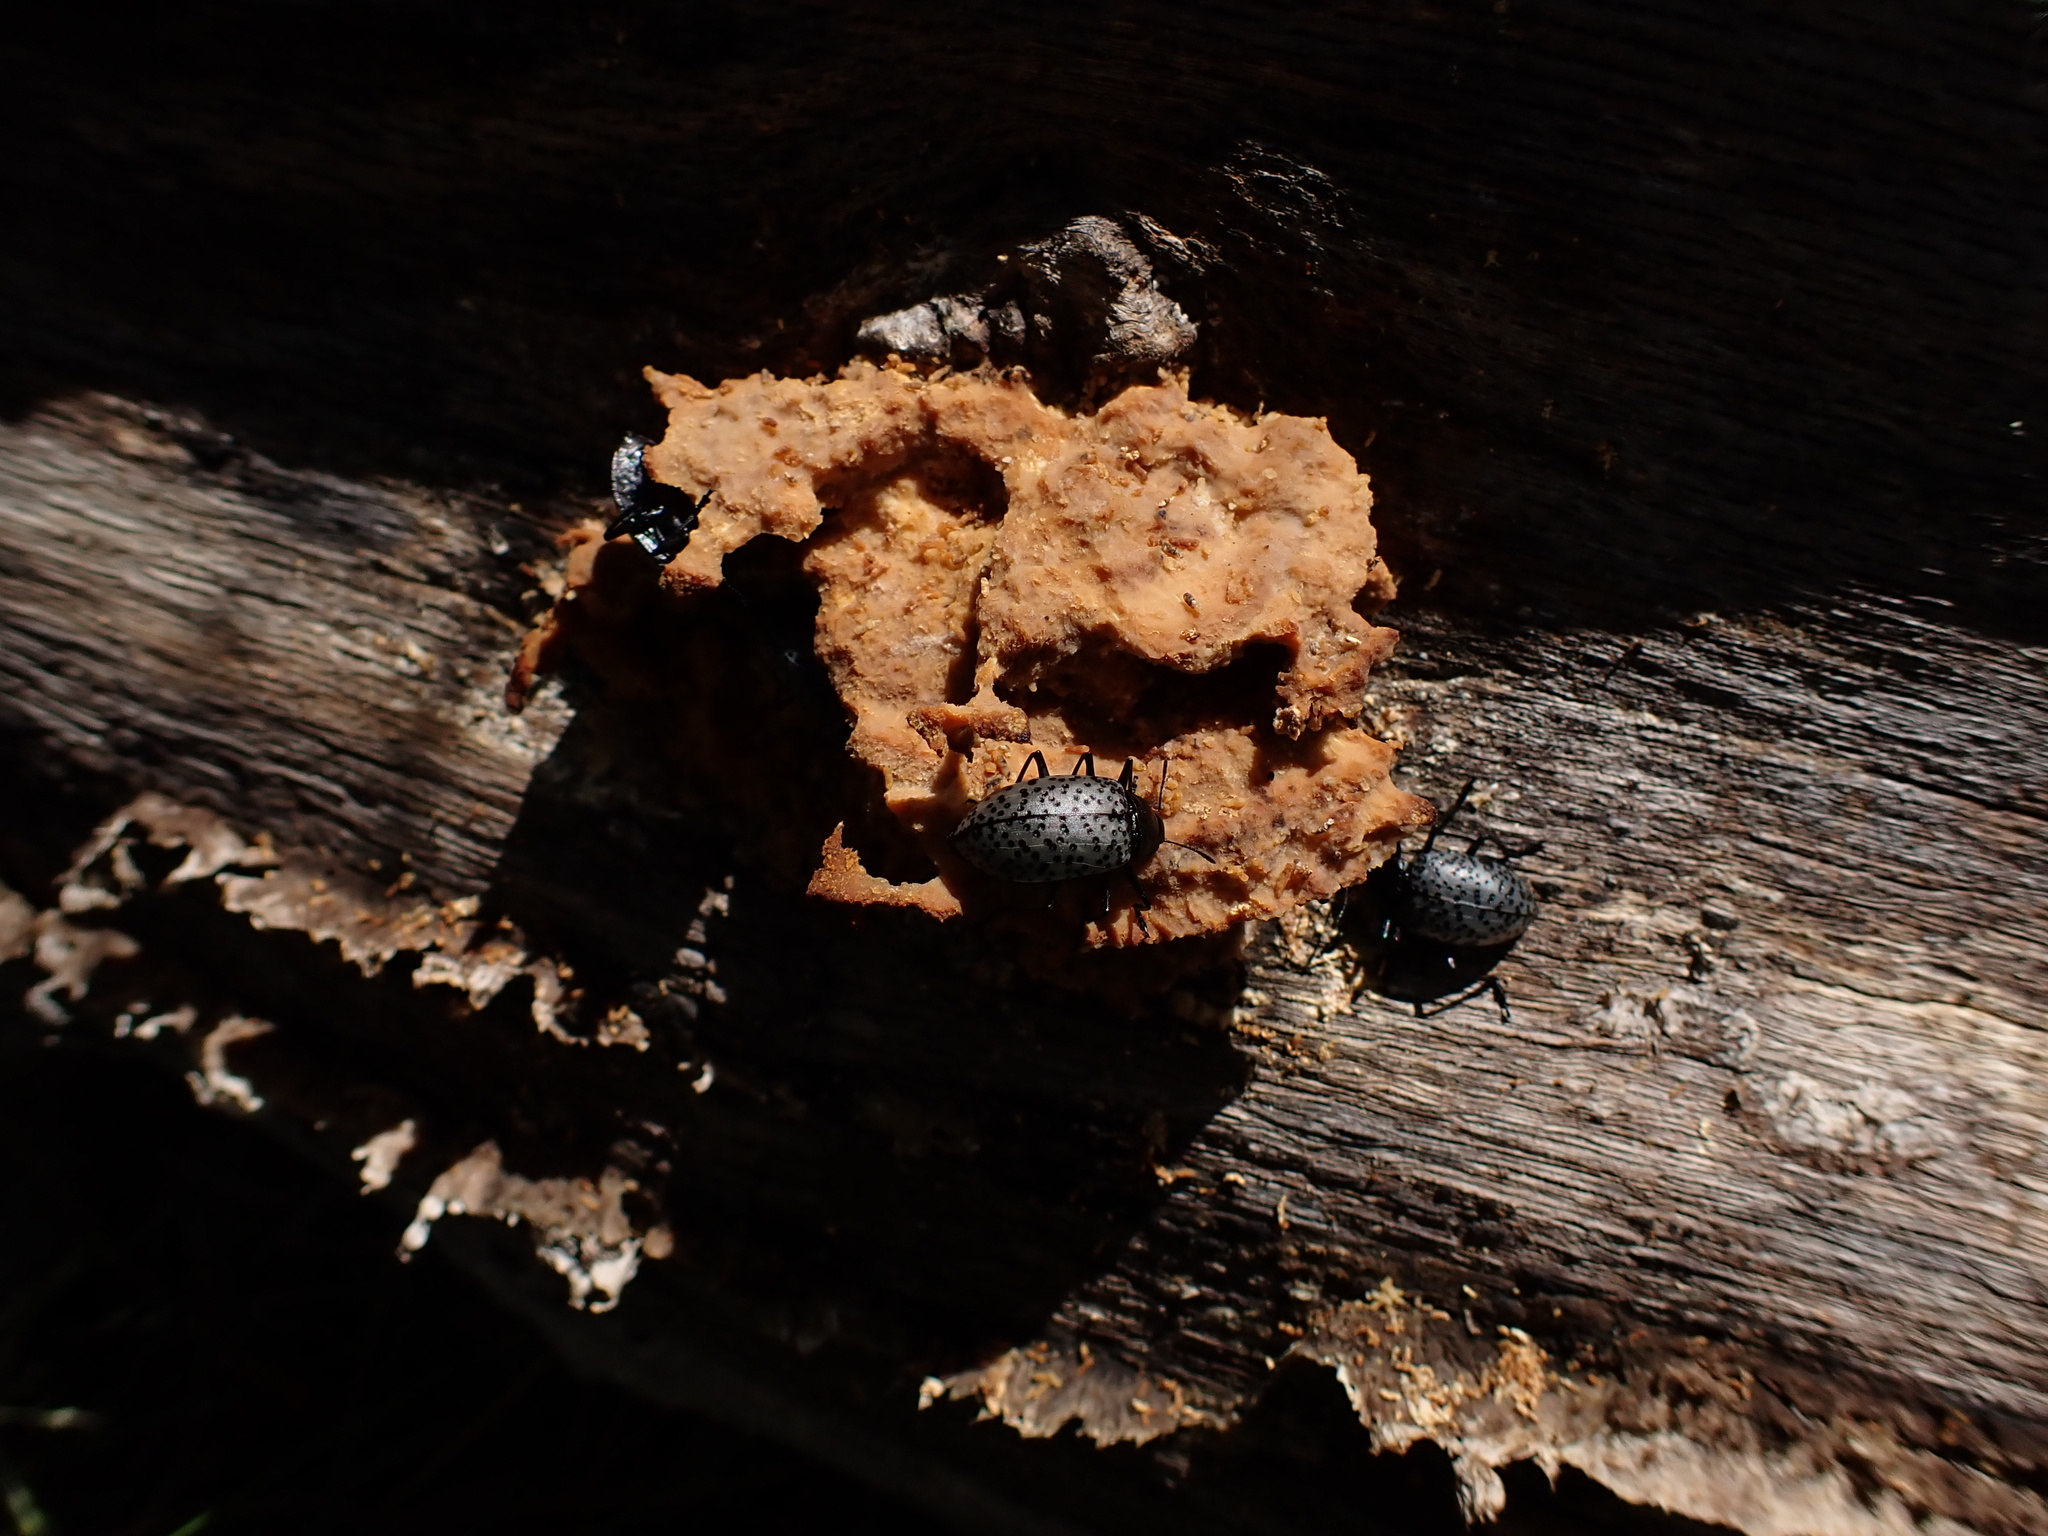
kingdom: Animalia
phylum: Arthropoda
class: Insecta
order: Coleoptera
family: Erotylidae
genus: Gibbifer
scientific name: Gibbifer californicus
